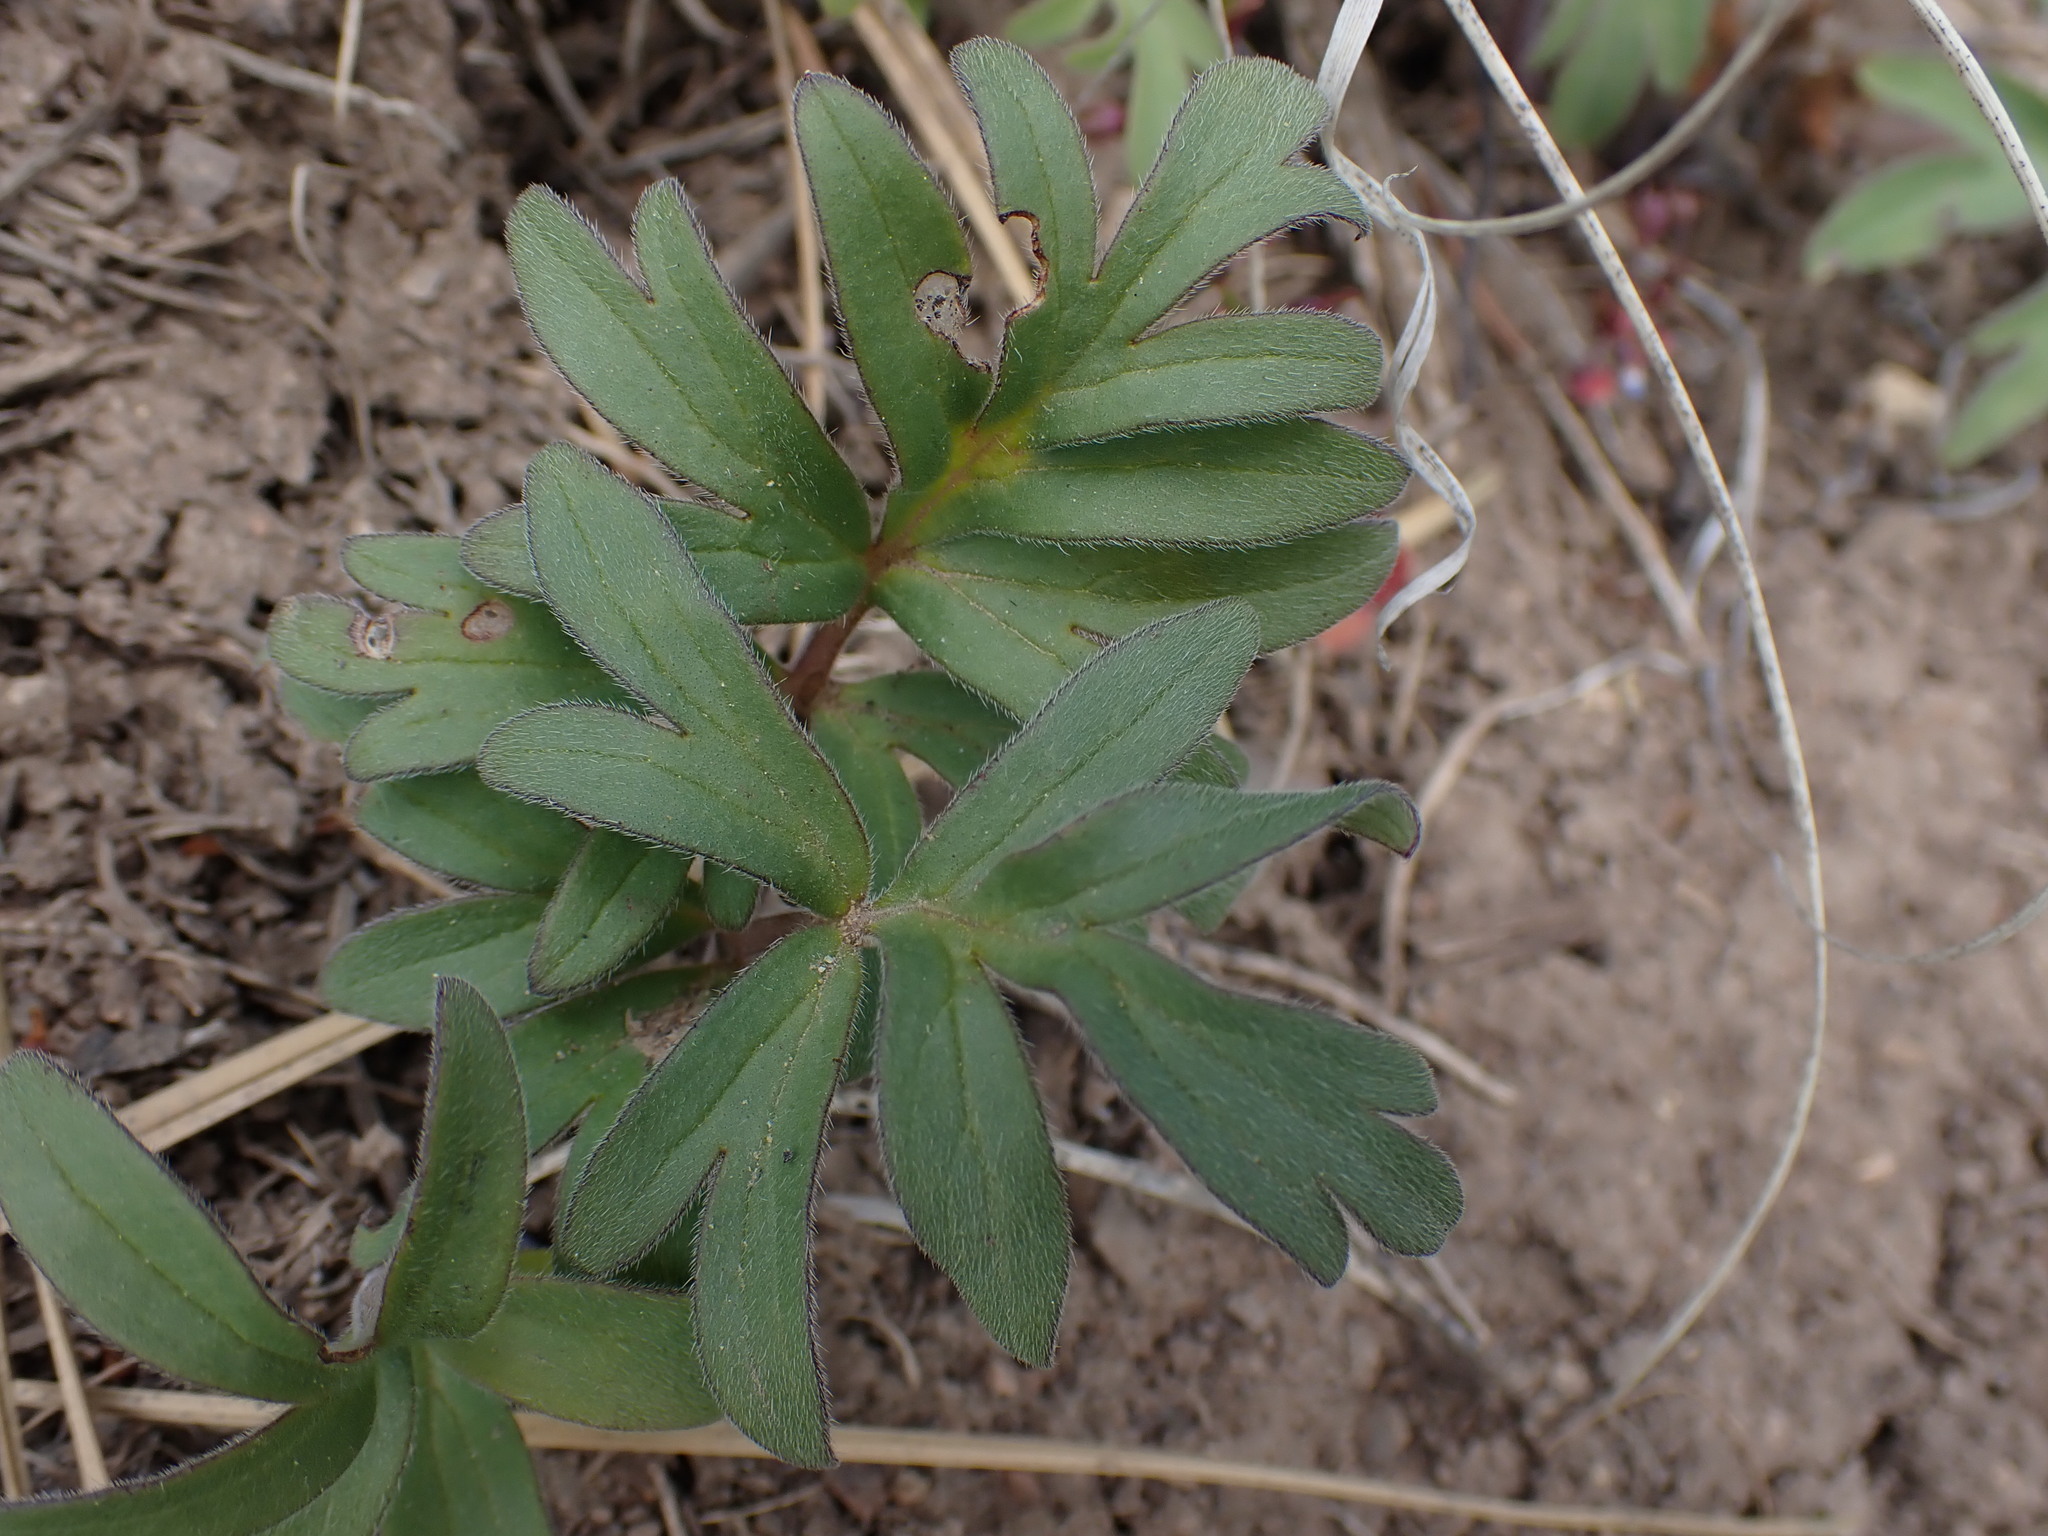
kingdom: Plantae
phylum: Tracheophyta
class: Magnoliopsida
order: Boraginales
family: Hydrophyllaceae
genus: Hydrophyllum
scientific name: Hydrophyllum capitatum
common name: Woollen-breeches
